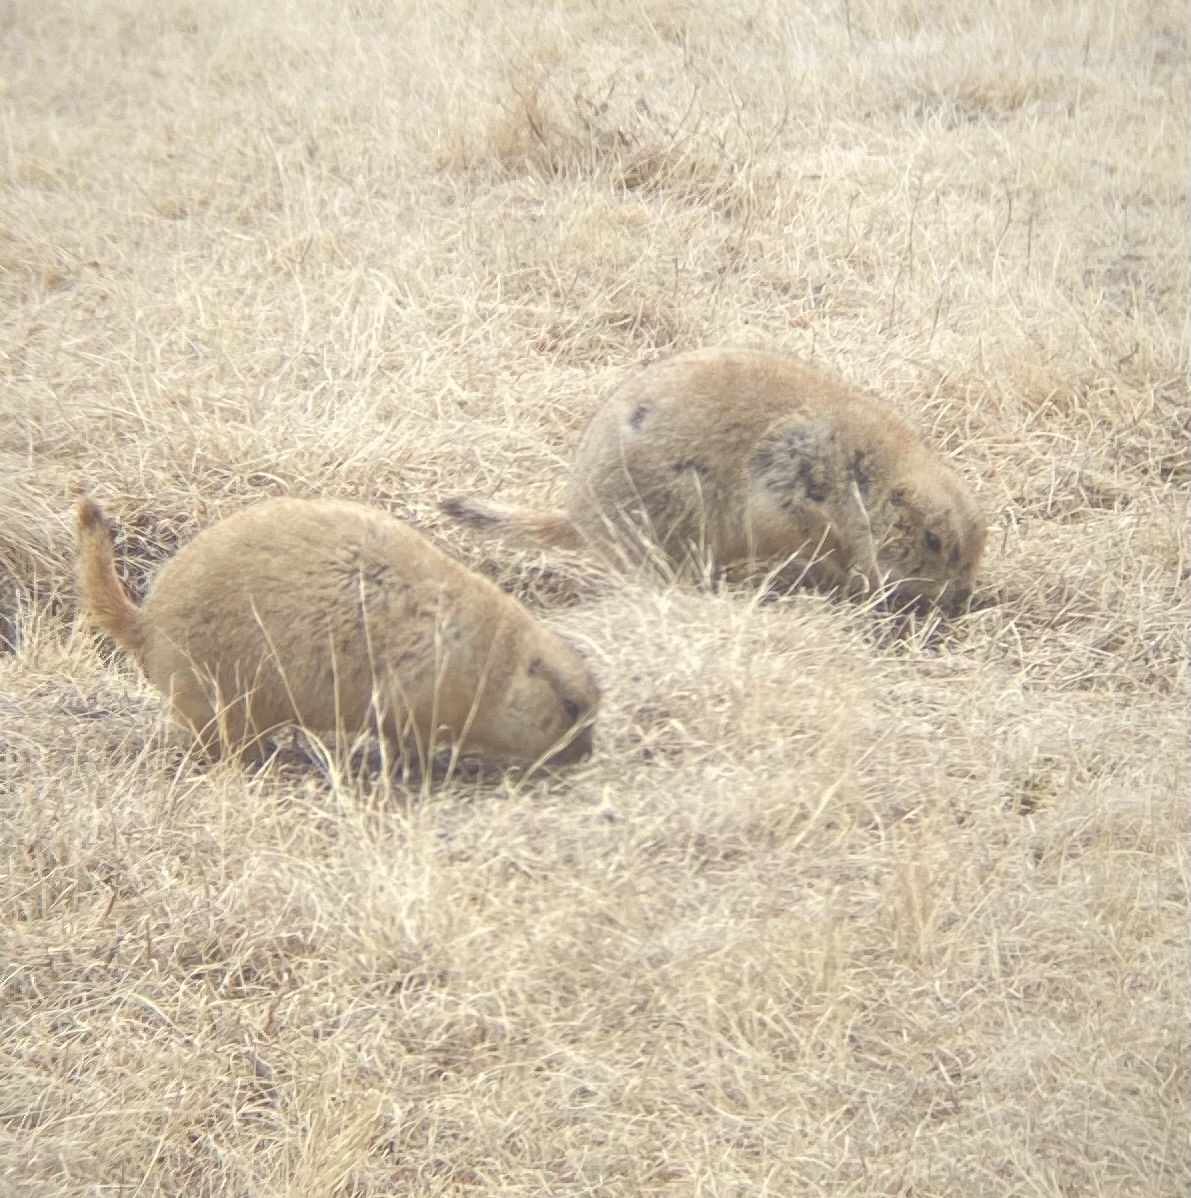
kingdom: Animalia
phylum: Chordata
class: Mammalia
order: Rodentia
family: Sciuridae
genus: Cynomys
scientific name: Cynomys ludovicianus
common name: Black-tailed prairie dog
